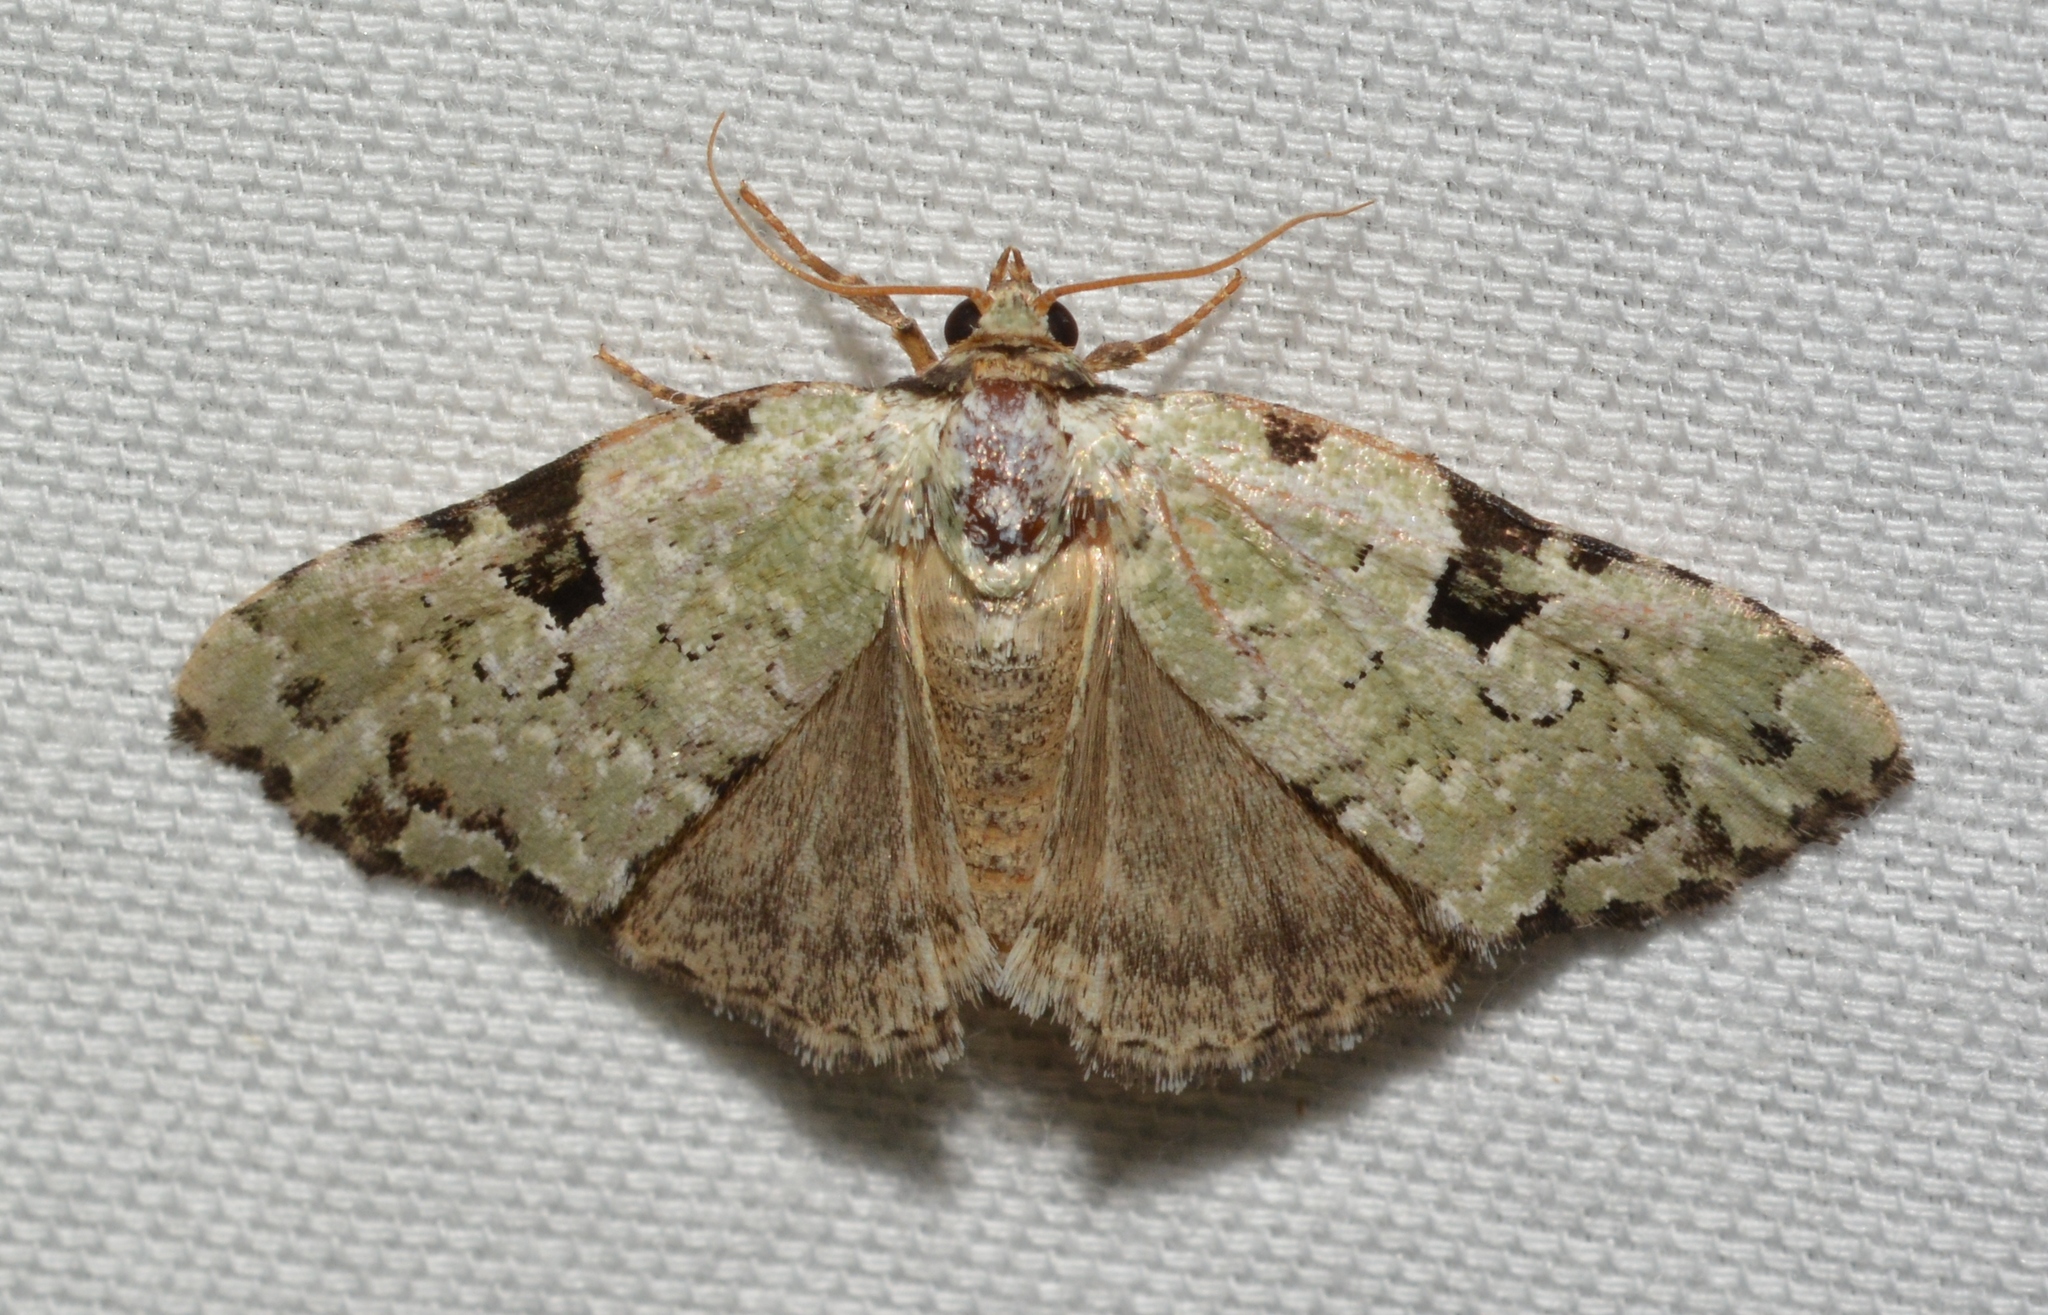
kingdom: Animalia
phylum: Arthropoda
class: Insecta
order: Lepidoptera
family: Noctuidae
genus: Leuconycta
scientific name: Leuconycta diphteroides
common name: Green leuconycta moth
